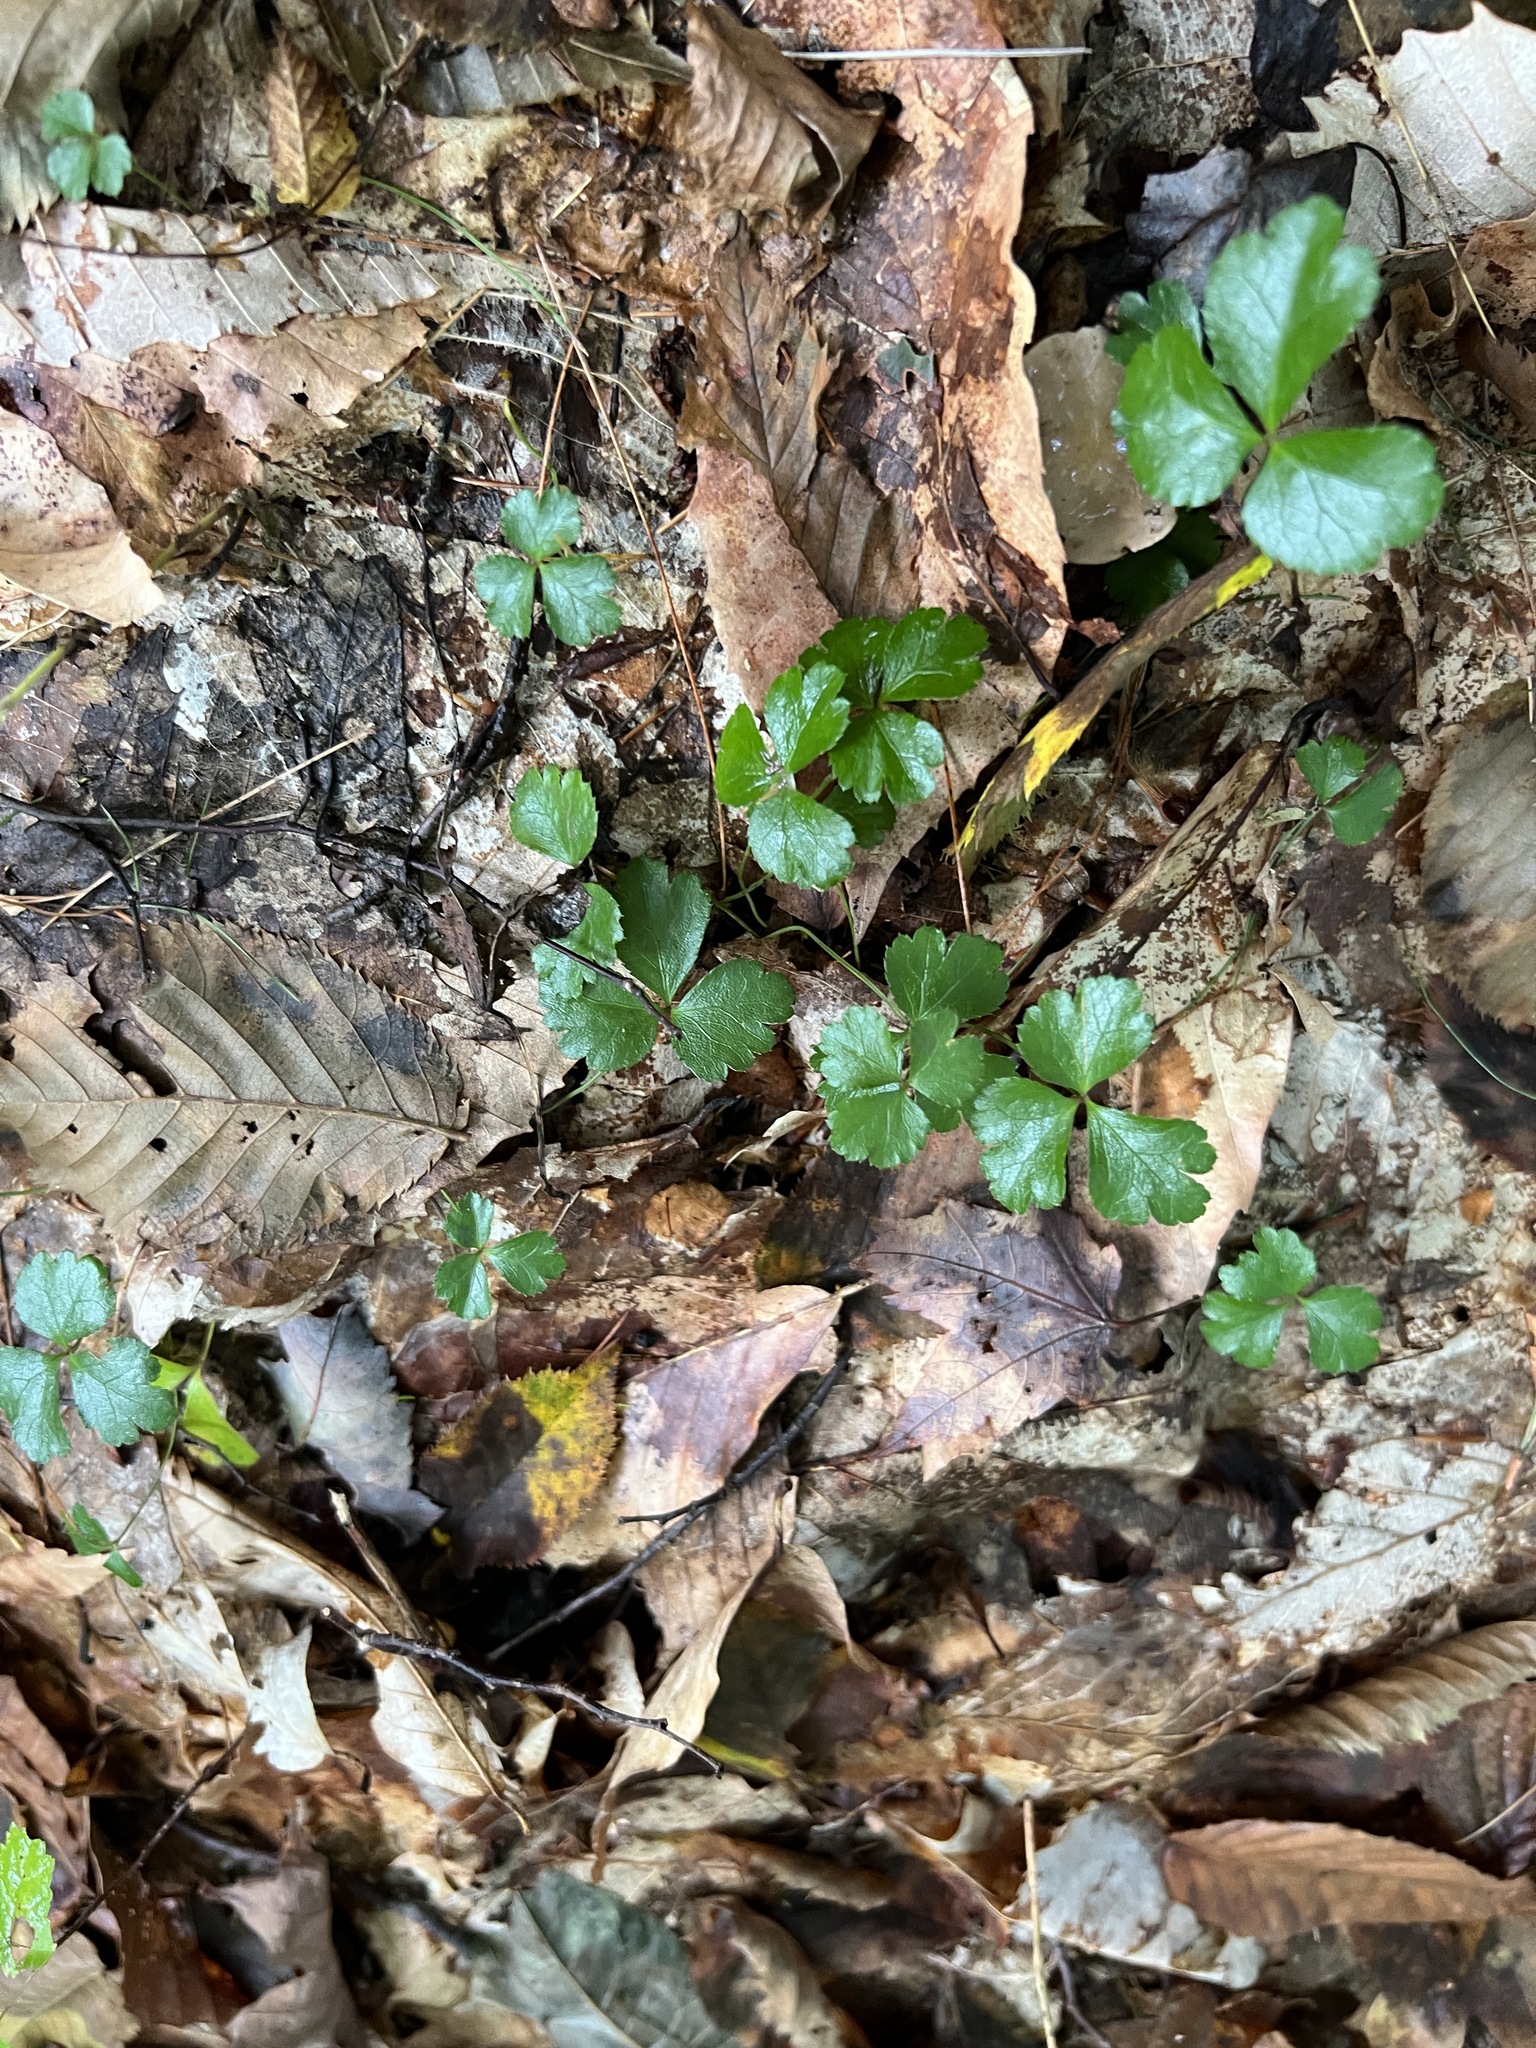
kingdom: Plantae
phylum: Tracheophyta
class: Magnoliopsida
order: Ranunculales
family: Ranunculaceae
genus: Coptis
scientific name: Coptis trifolia
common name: Canker-root
